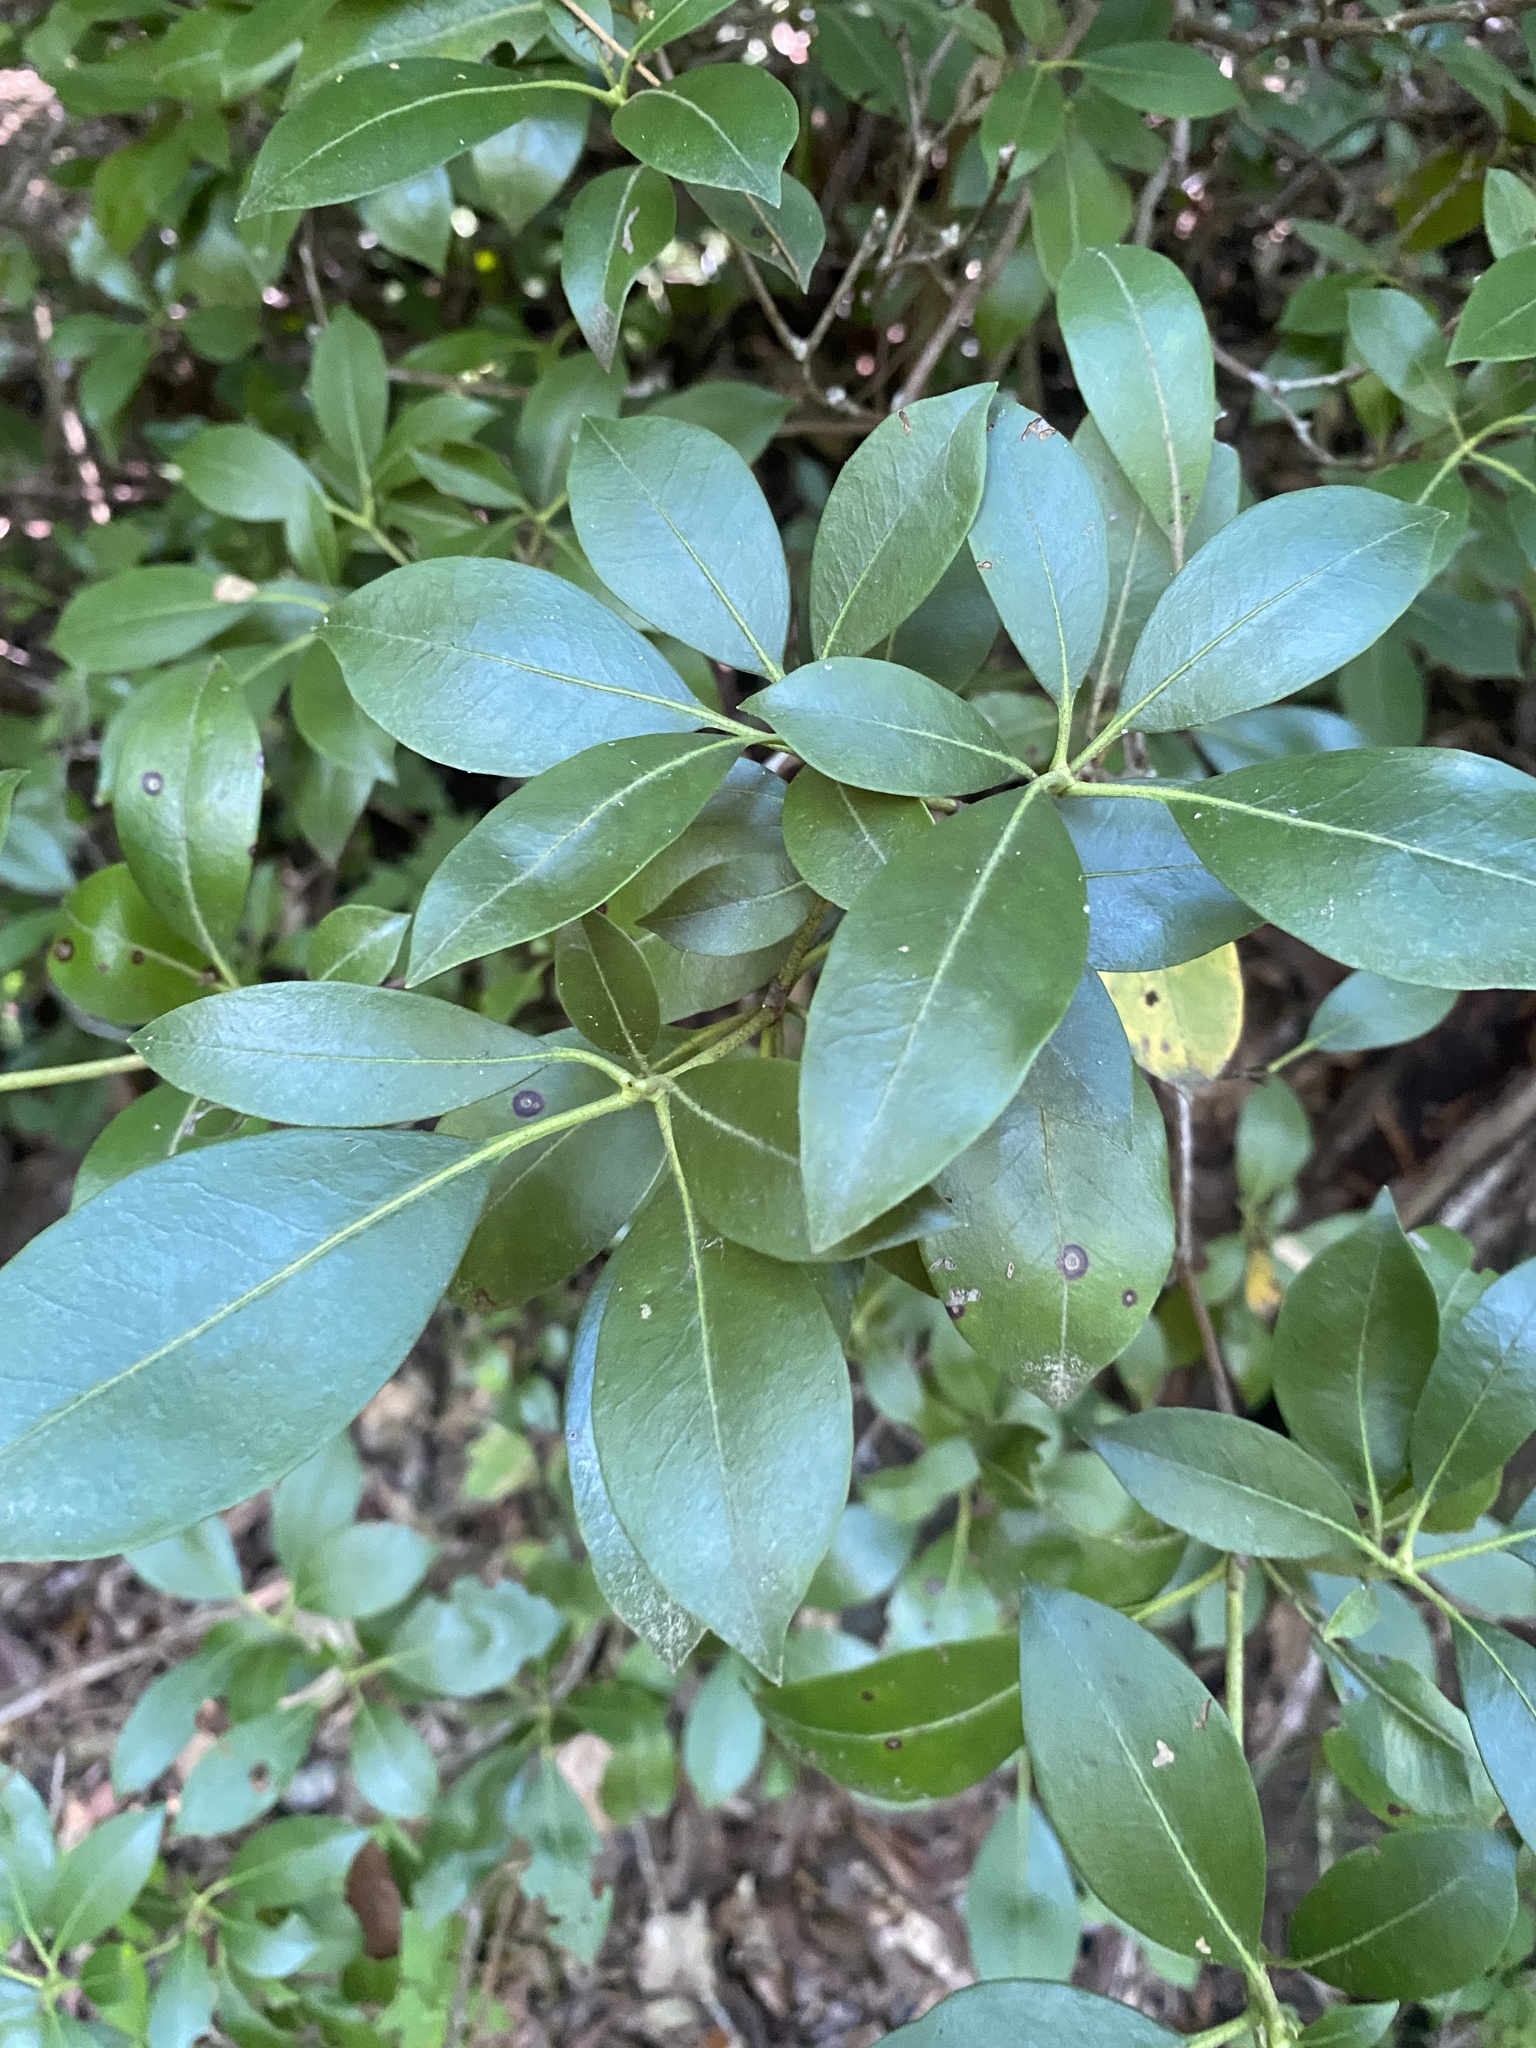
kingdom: Plantae
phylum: Tracheophyta
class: Magnoliopsida
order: Ericales
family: Ericaceae
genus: Kalmia
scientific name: Kalmia latifolia
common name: Mountain-laurel
